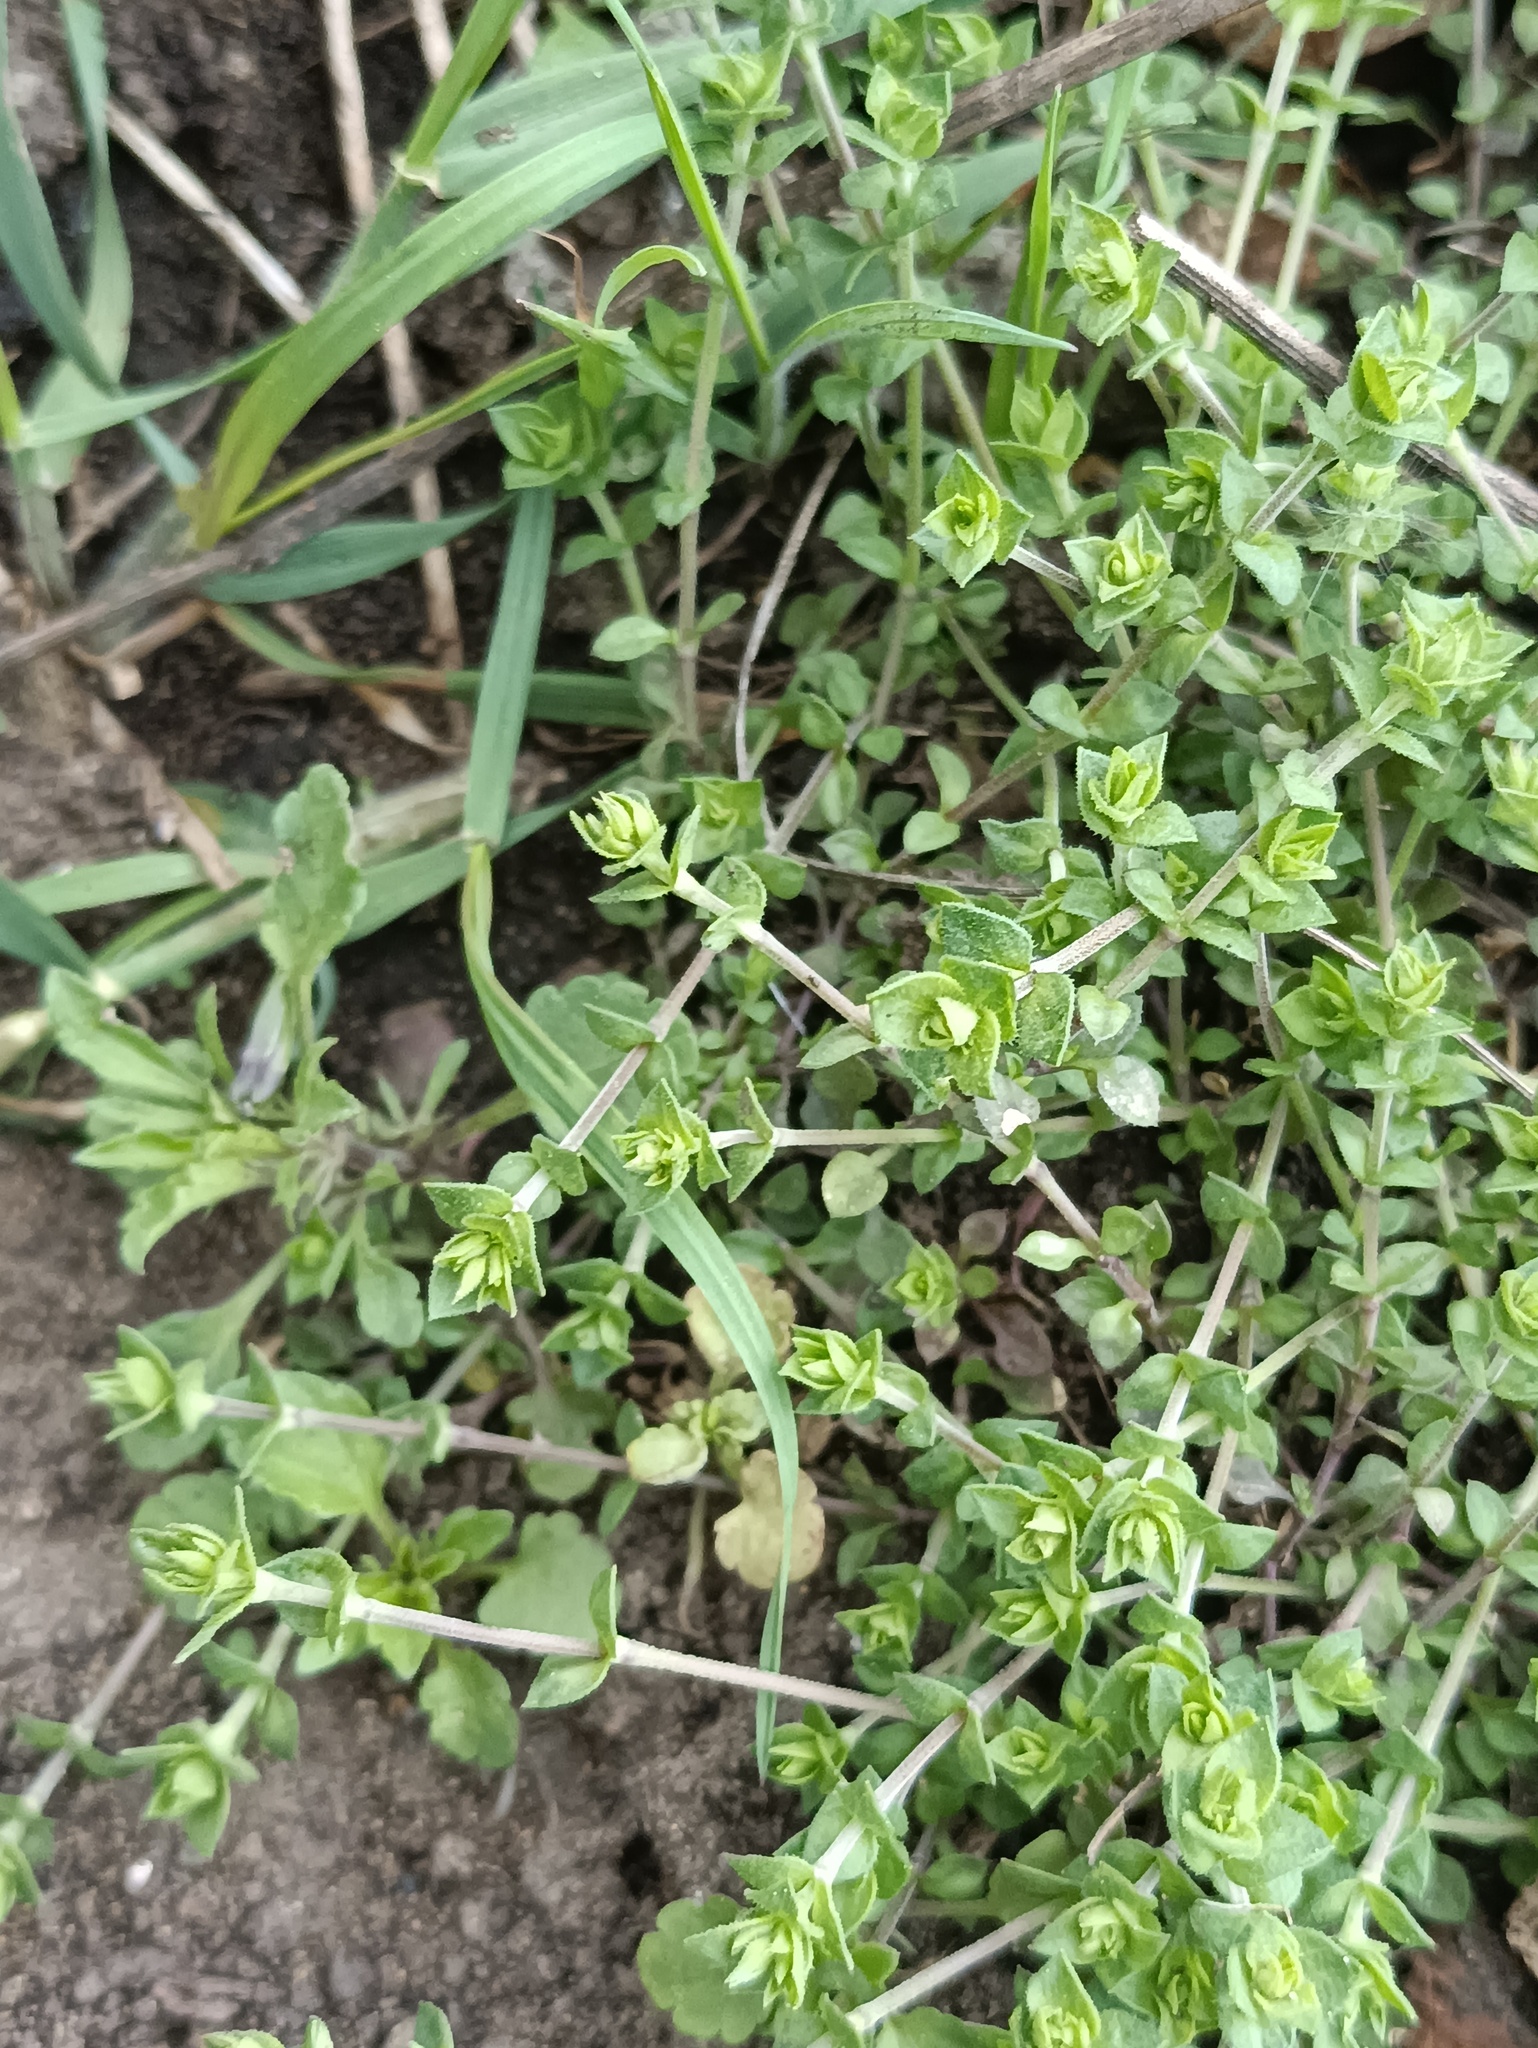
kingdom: Plantae
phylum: Tracheophyta
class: Magnoliopsida
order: Caryophyllales
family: Caryophyllaceae
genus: Arenaria
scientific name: Arenaria serpyllifolia
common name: Thyme-leaved sandwort
